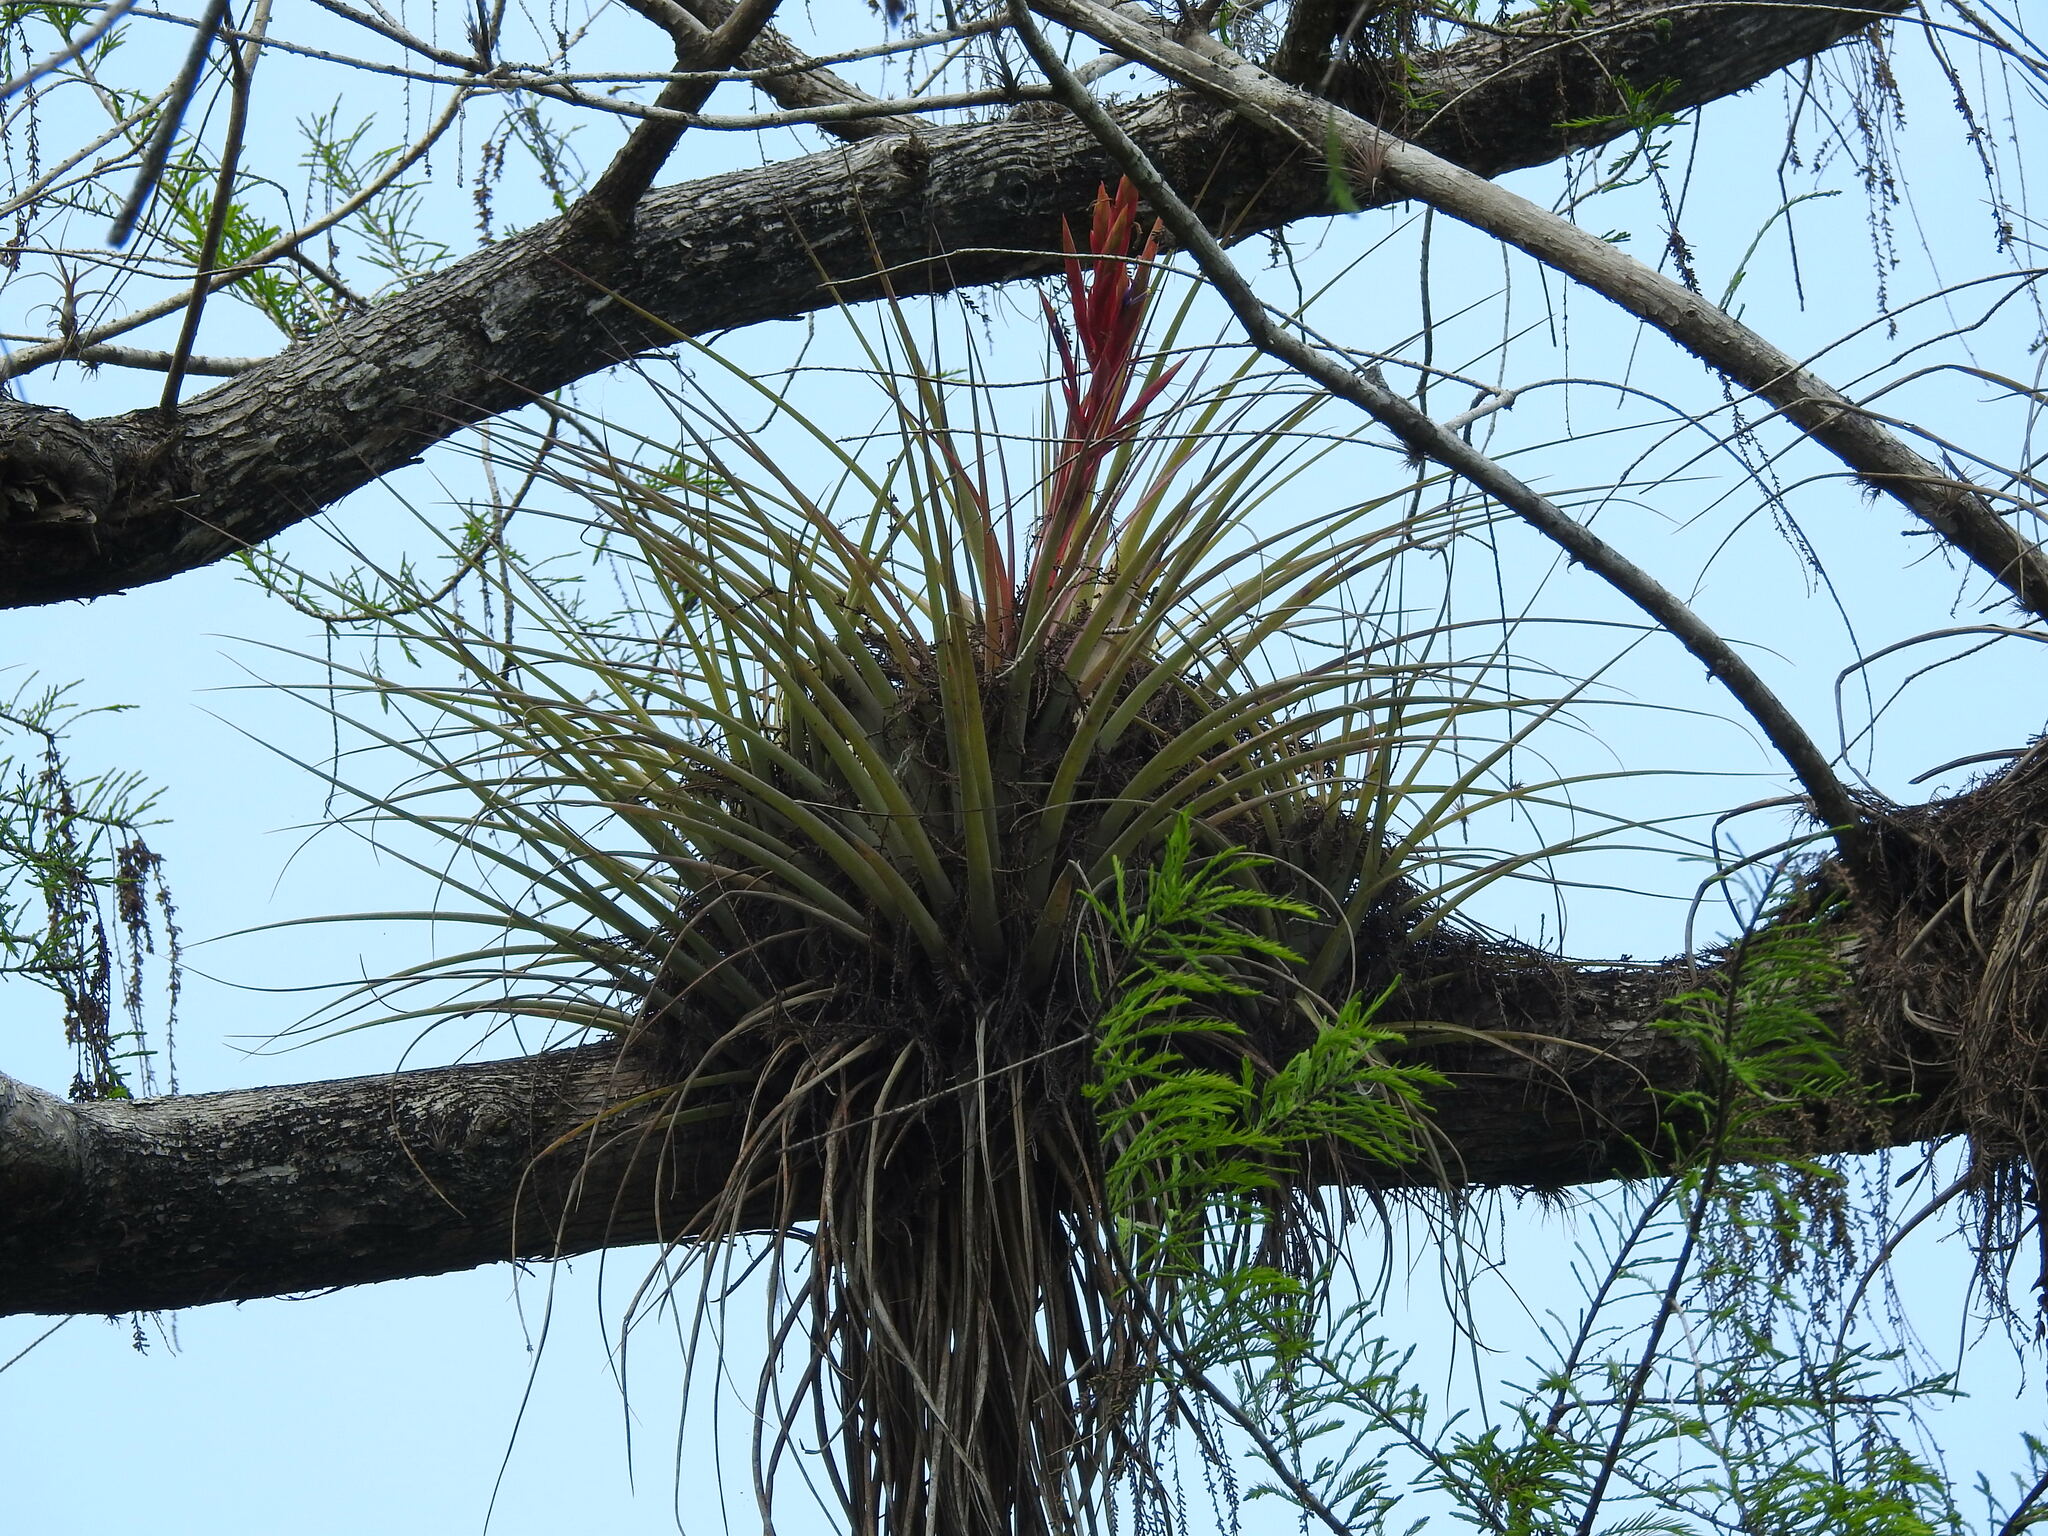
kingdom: Plantae
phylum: Tracheophyta
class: Liliopsida
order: Poales
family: Bromeliaceae
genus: Tillandsia
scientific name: Tillandsia fasciculata
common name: Giant airplant
